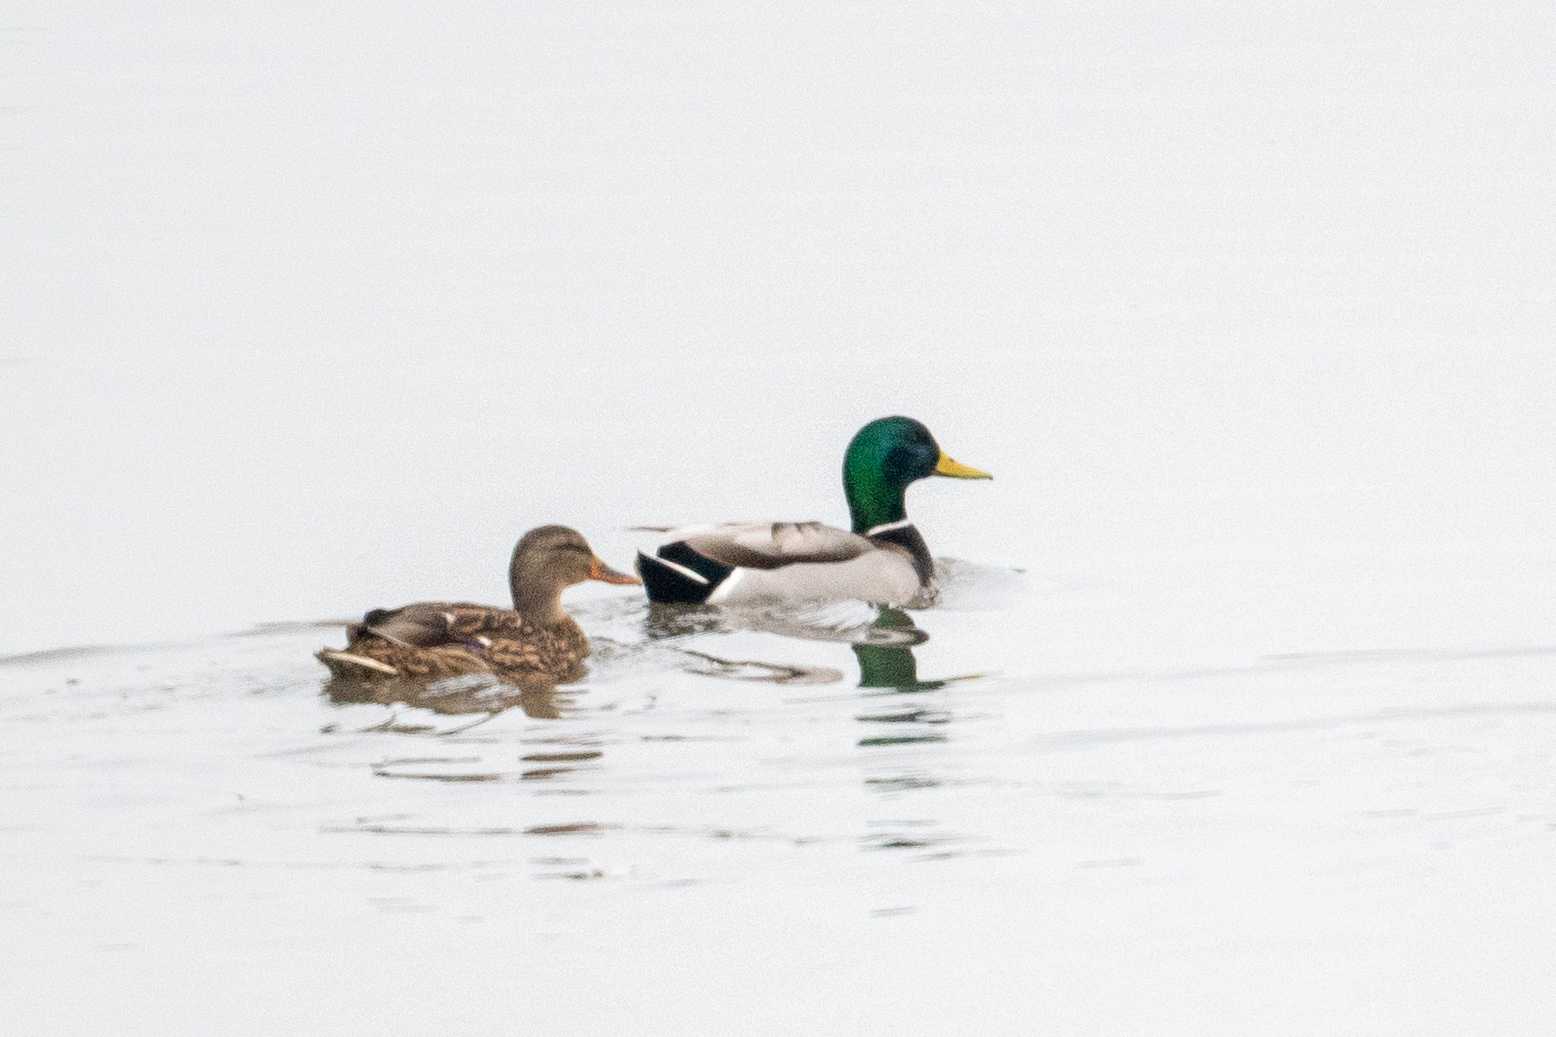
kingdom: Animalia
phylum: Chordata
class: Aves
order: Anseriformes
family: Anatidae
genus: Anas
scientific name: Anas platyrhynchos
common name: Mallard
